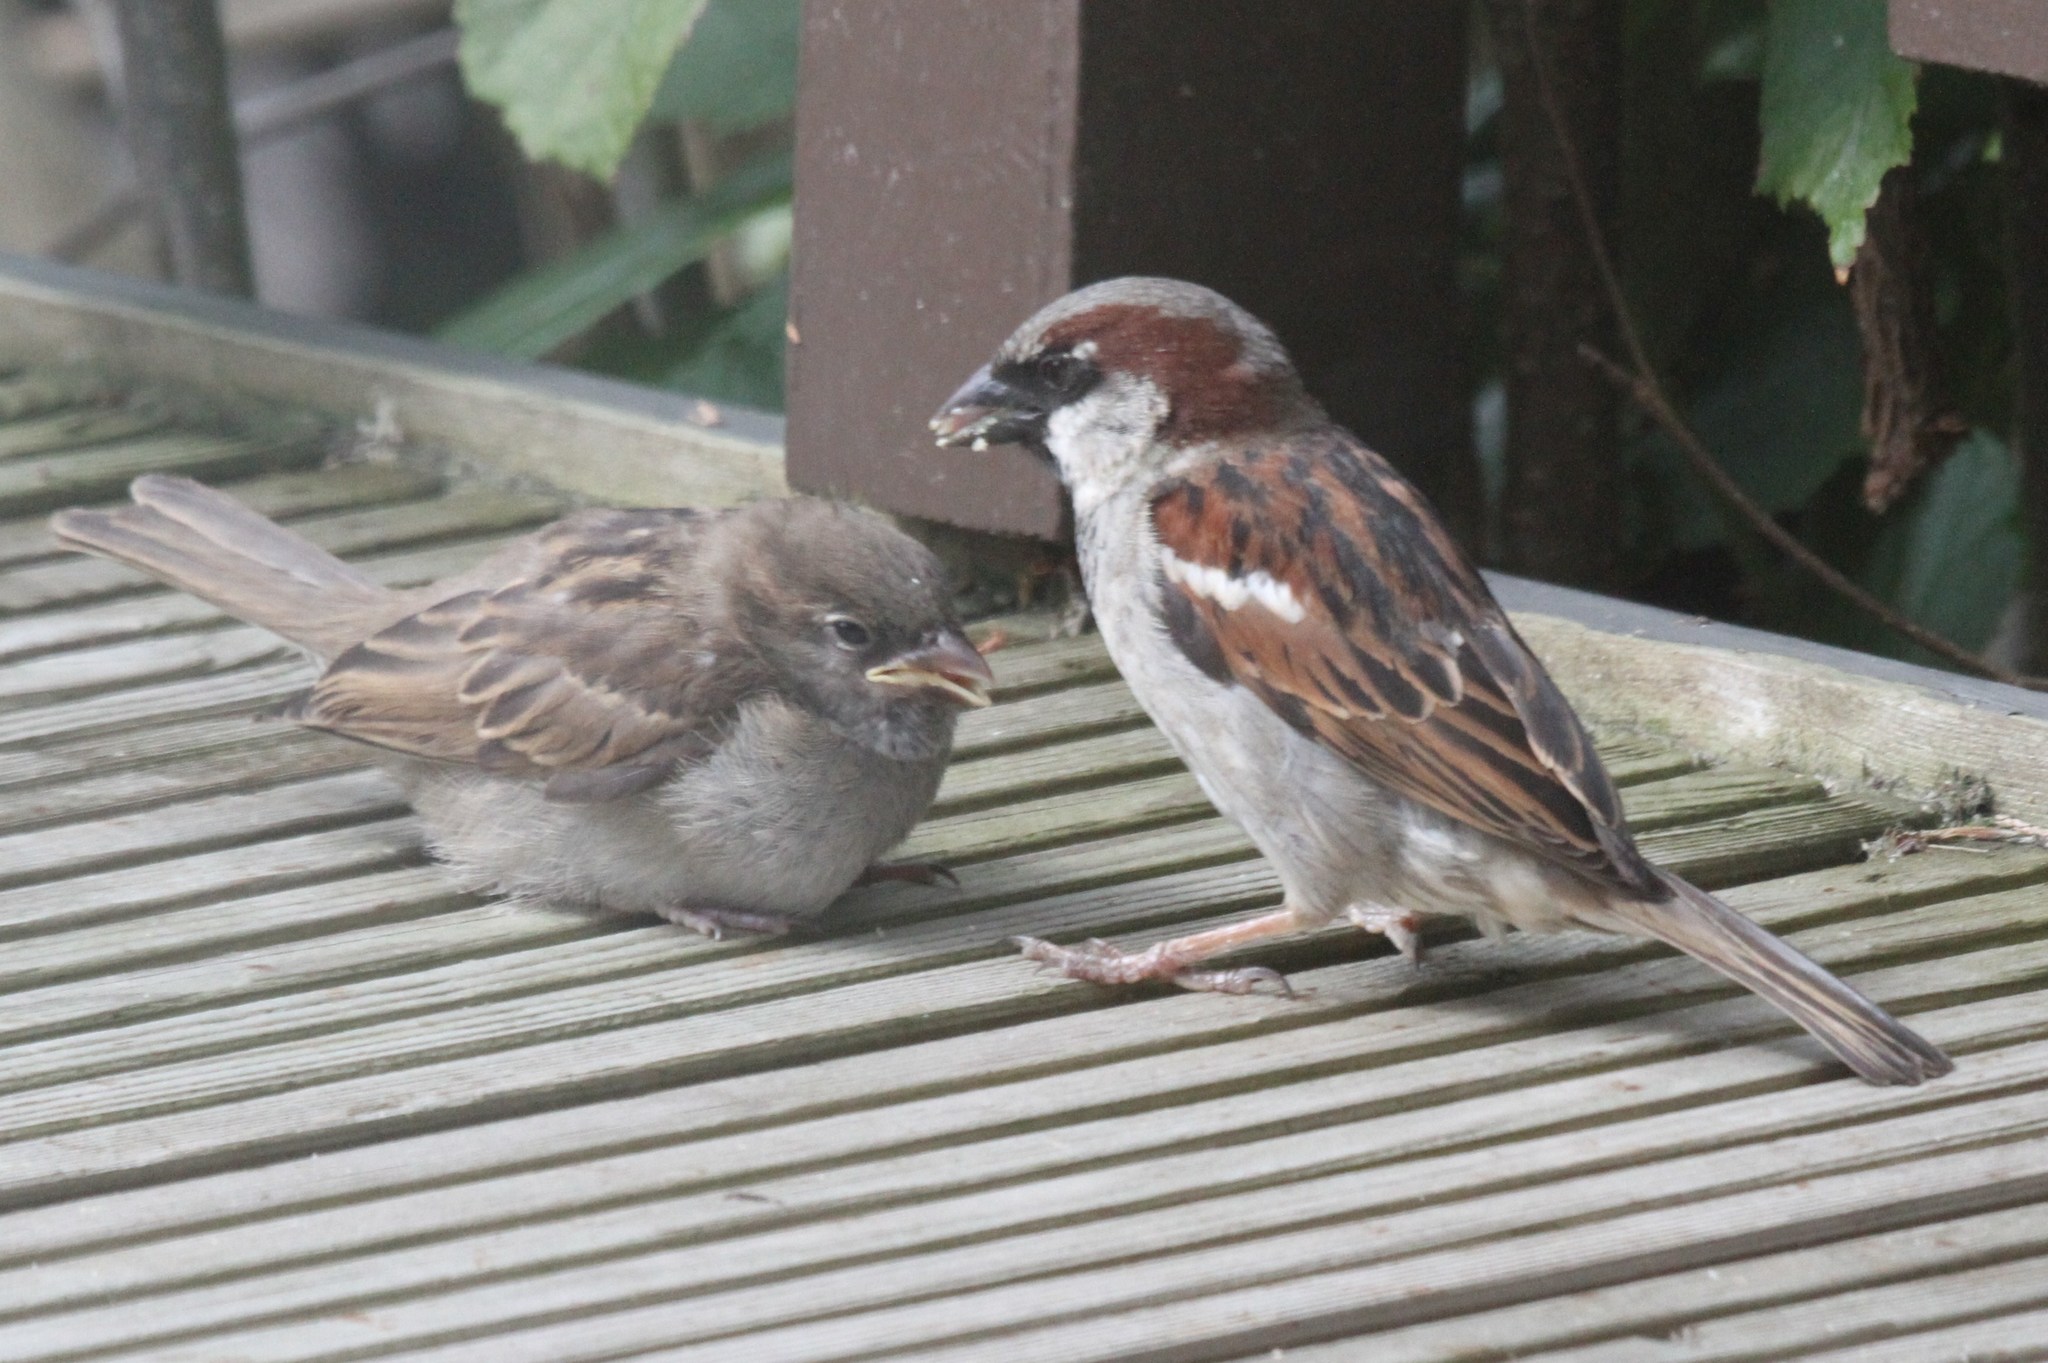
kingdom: Animalia
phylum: Chordata
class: Aves
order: Passeriformes
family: Passeridae
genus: Passer
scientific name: Passer domesticus
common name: House sparrow
